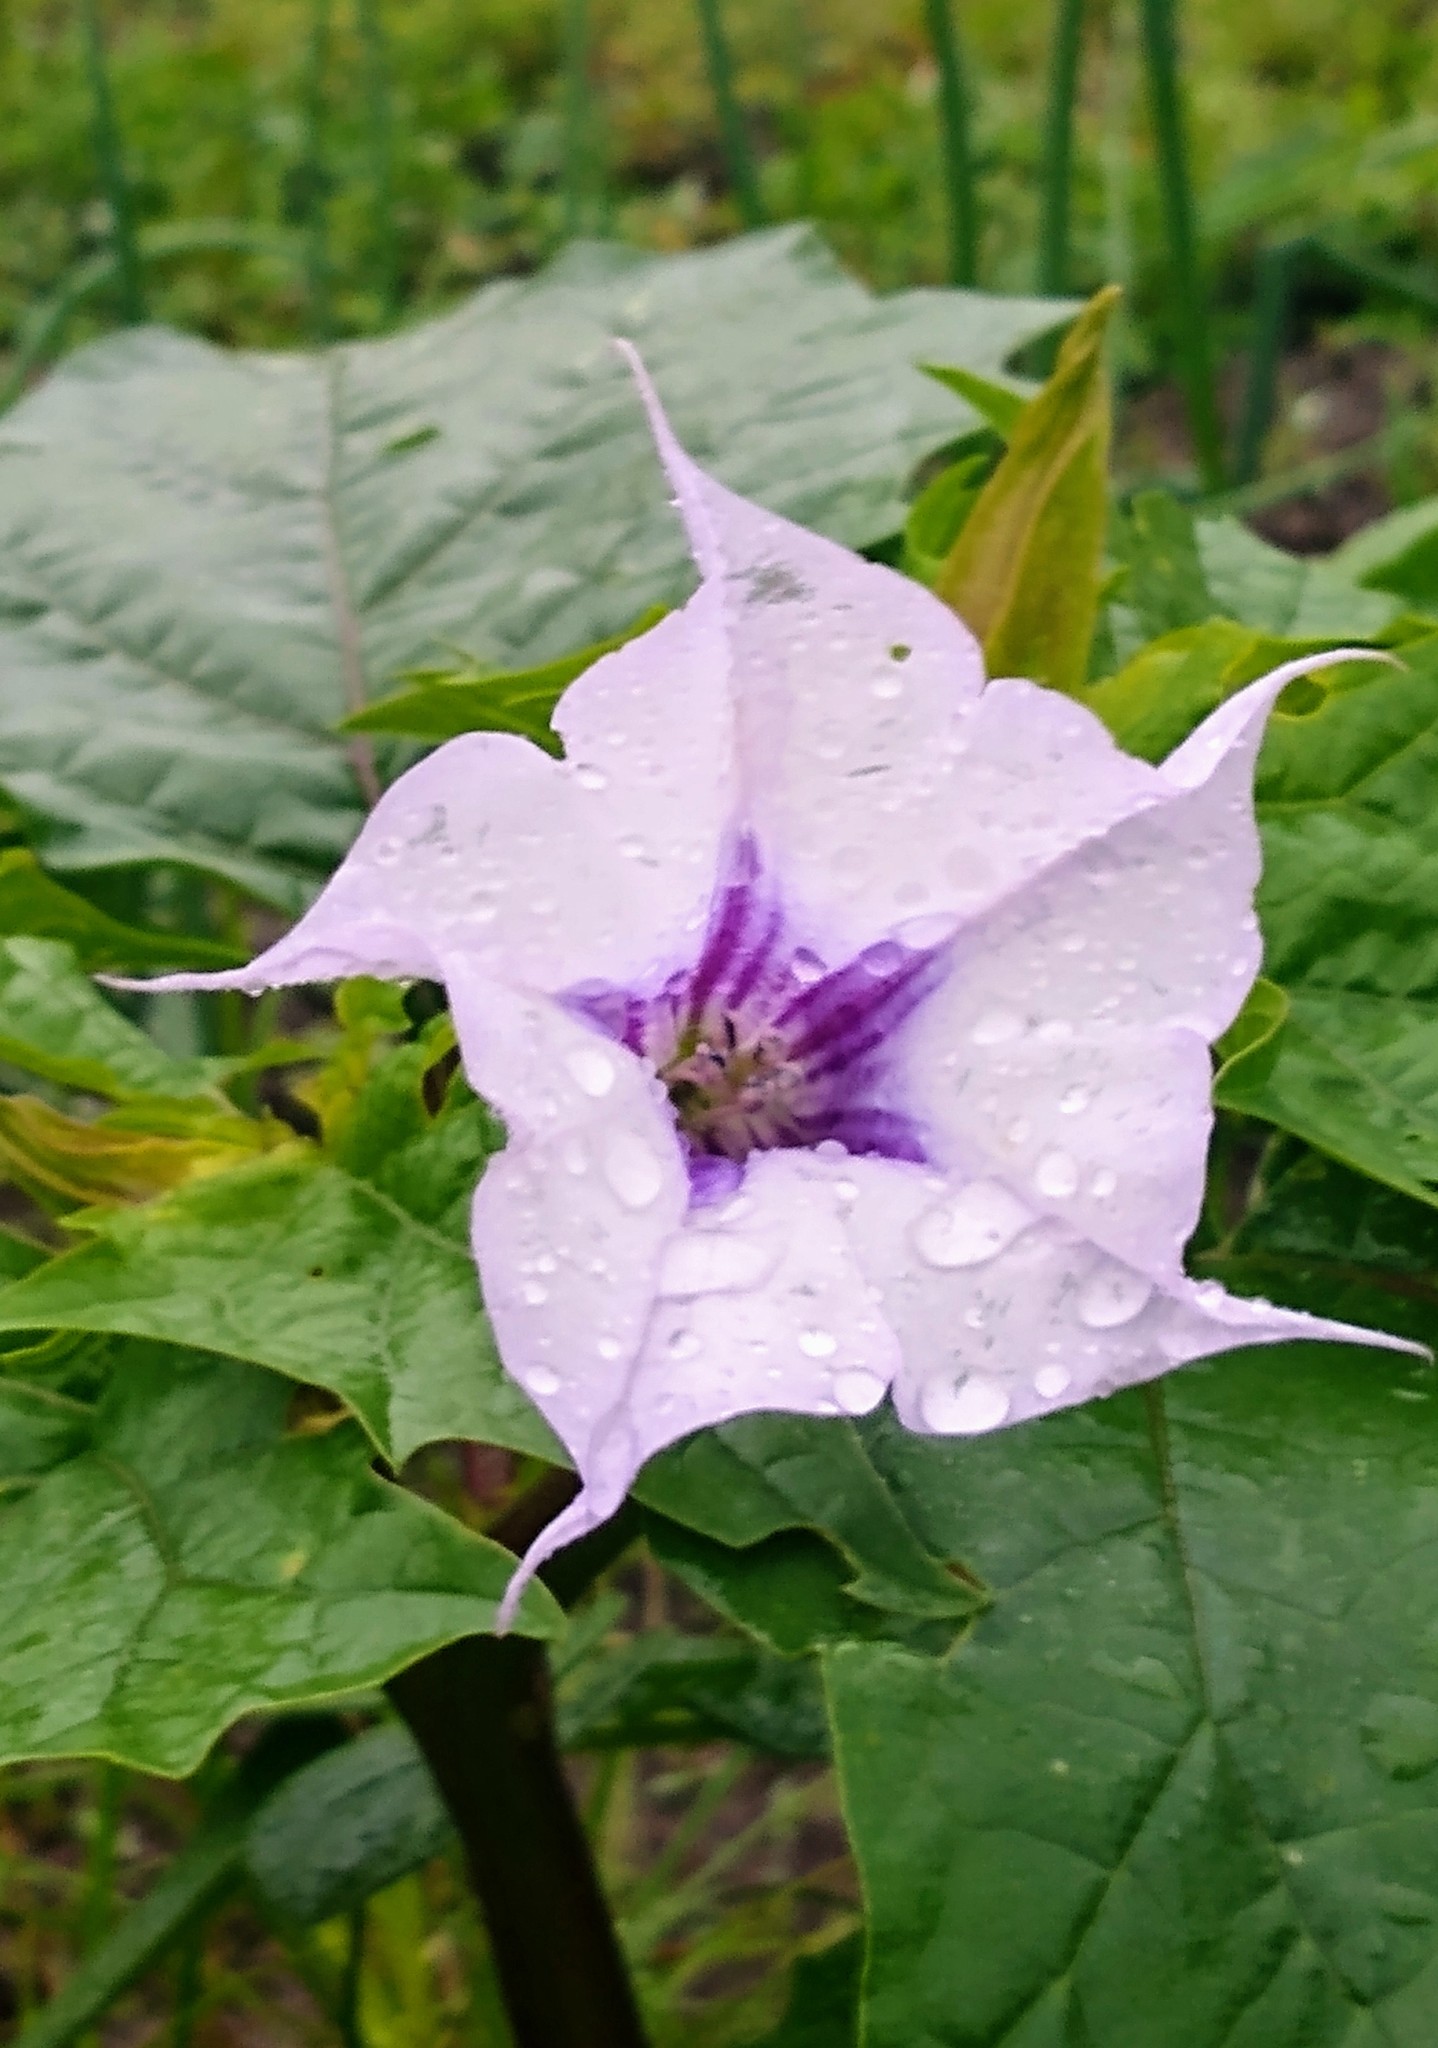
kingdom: Plantae
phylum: Tracheophyta
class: Magnoliopsida
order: Solanales
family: Solanaceae
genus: Datura
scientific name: Datura stramonium
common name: Thorn-apple
